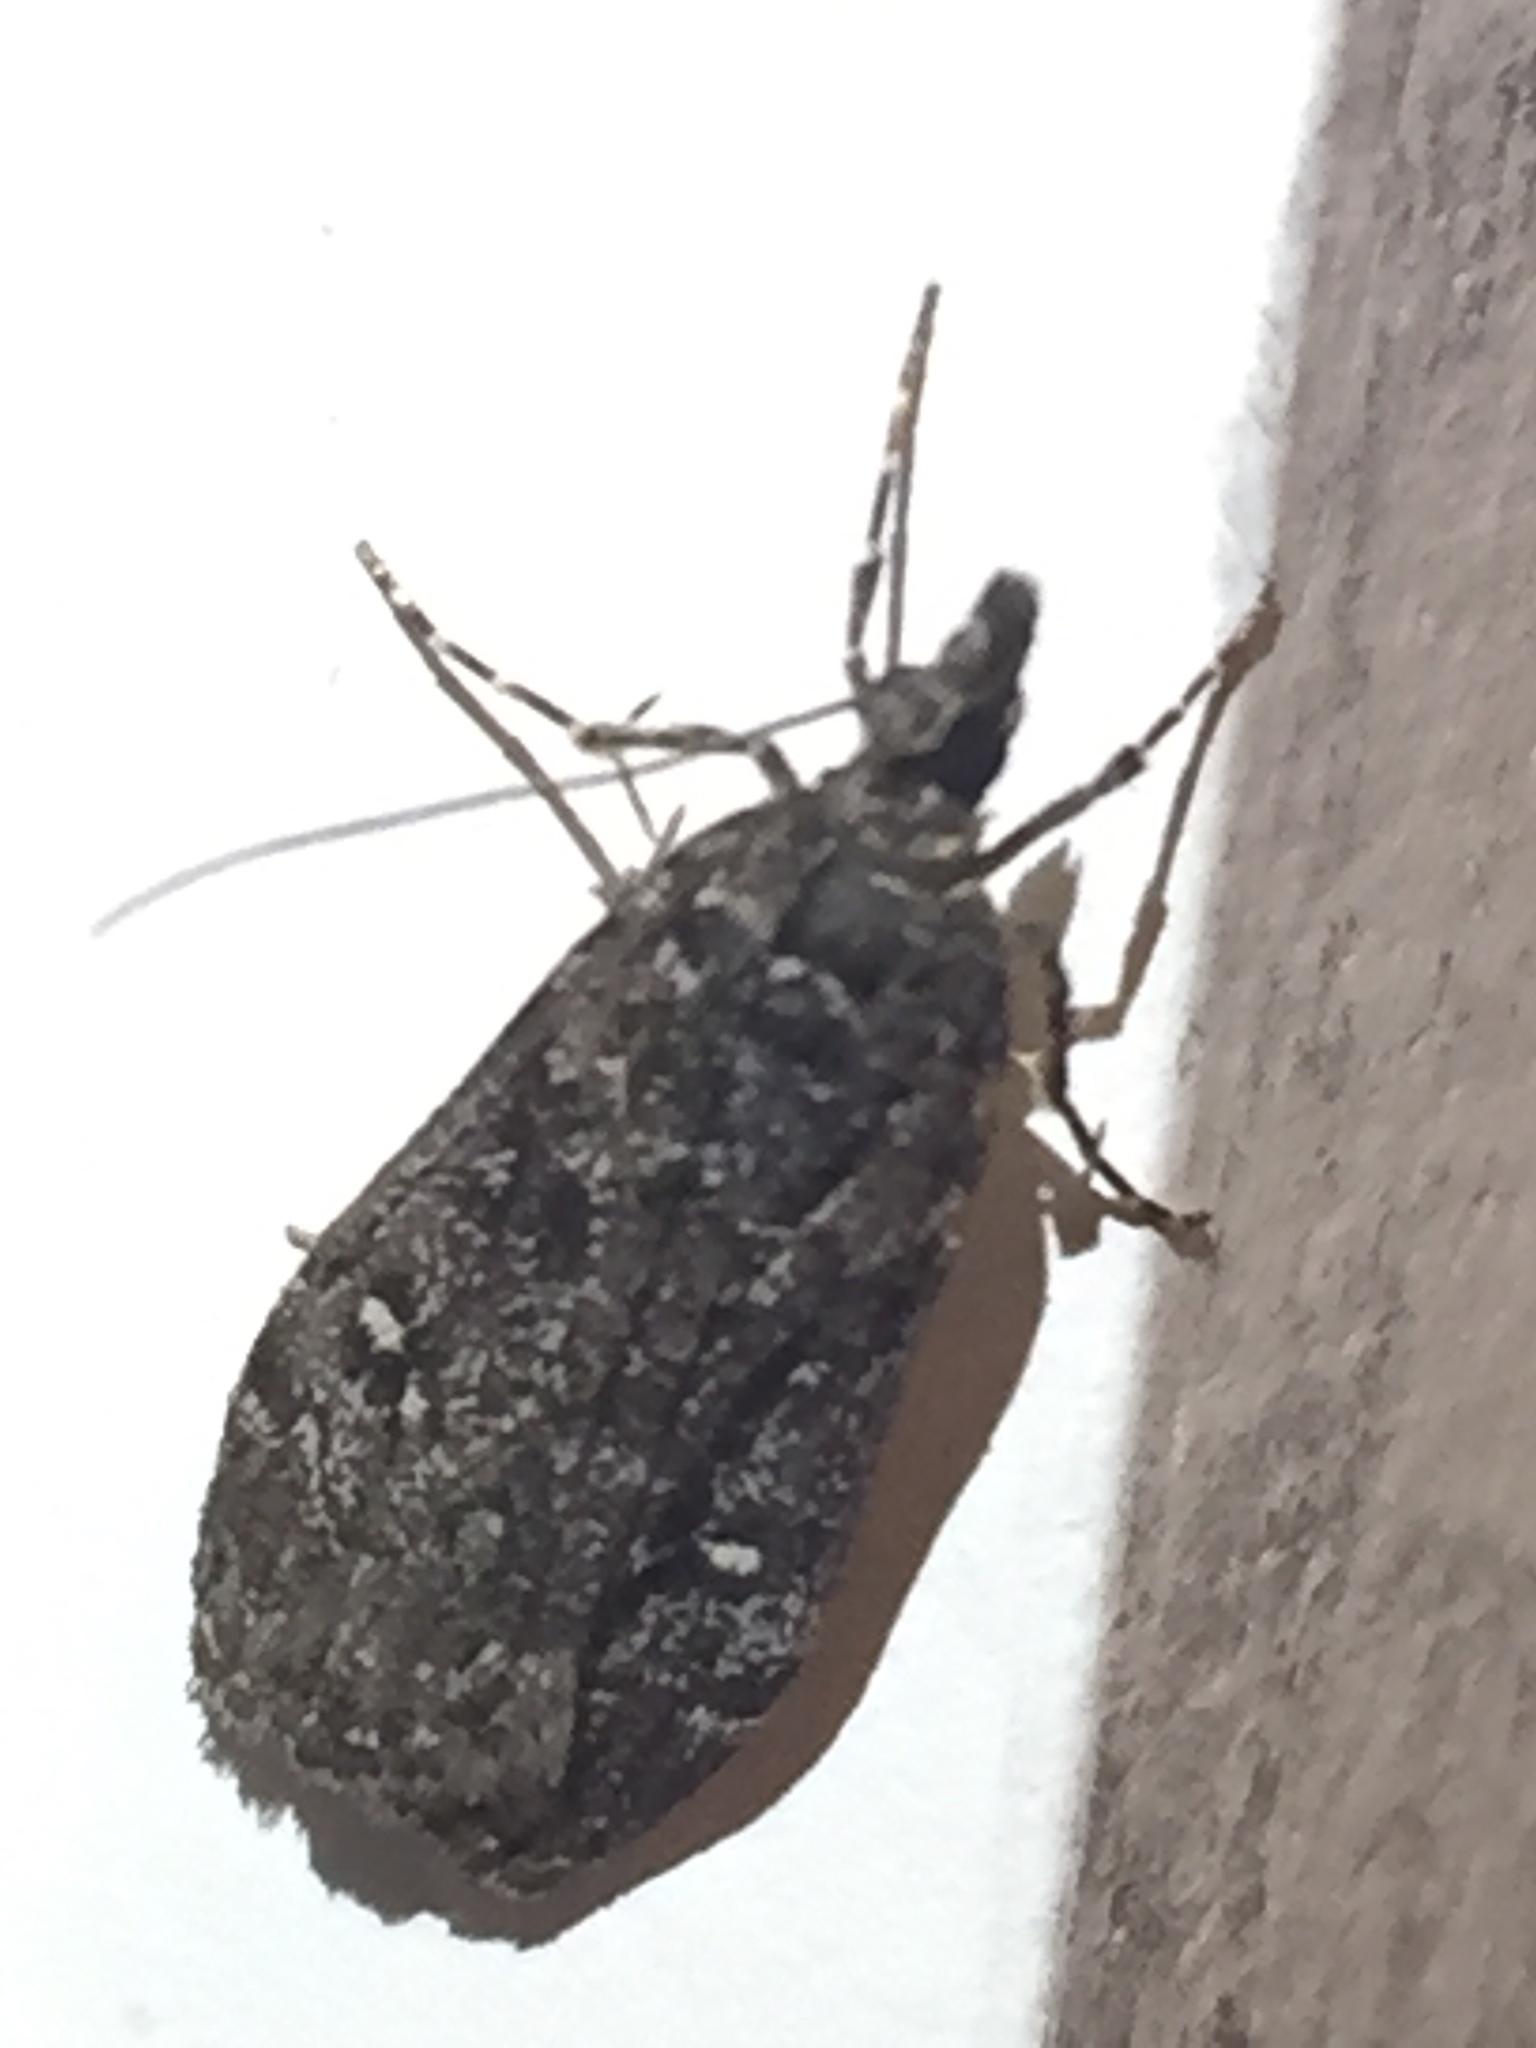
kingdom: Animalia
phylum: Arthropoda
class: Insecta
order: Lepidoptera
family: Crambidae
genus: Eudonia
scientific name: Eudonia philerga
